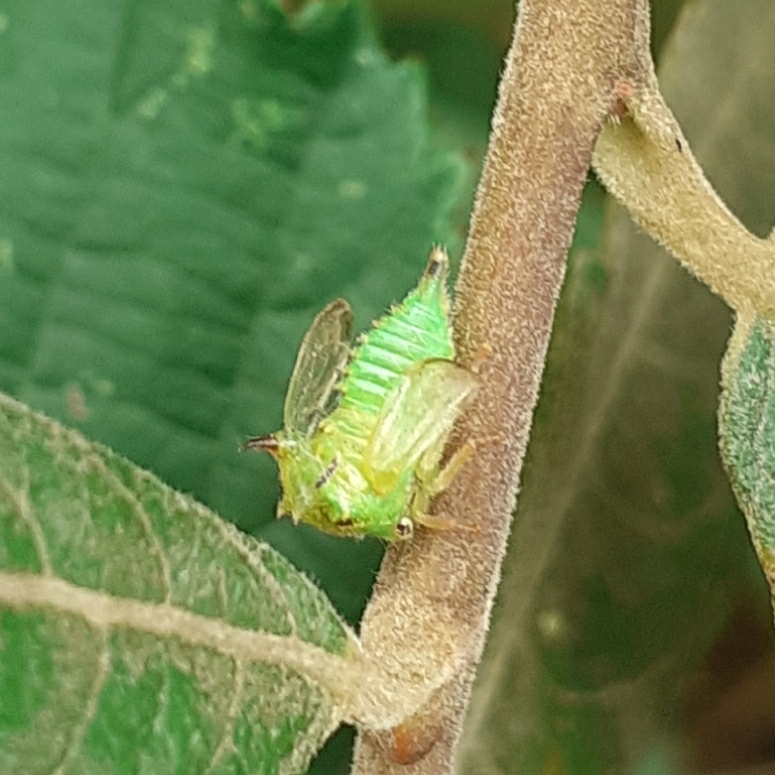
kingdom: Animalia
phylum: Arthropoda
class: Insecta
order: Hemiptera
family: Membracidae
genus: Stictocephala
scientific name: Stictocephala bisonia
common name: American buffalo treehopper
